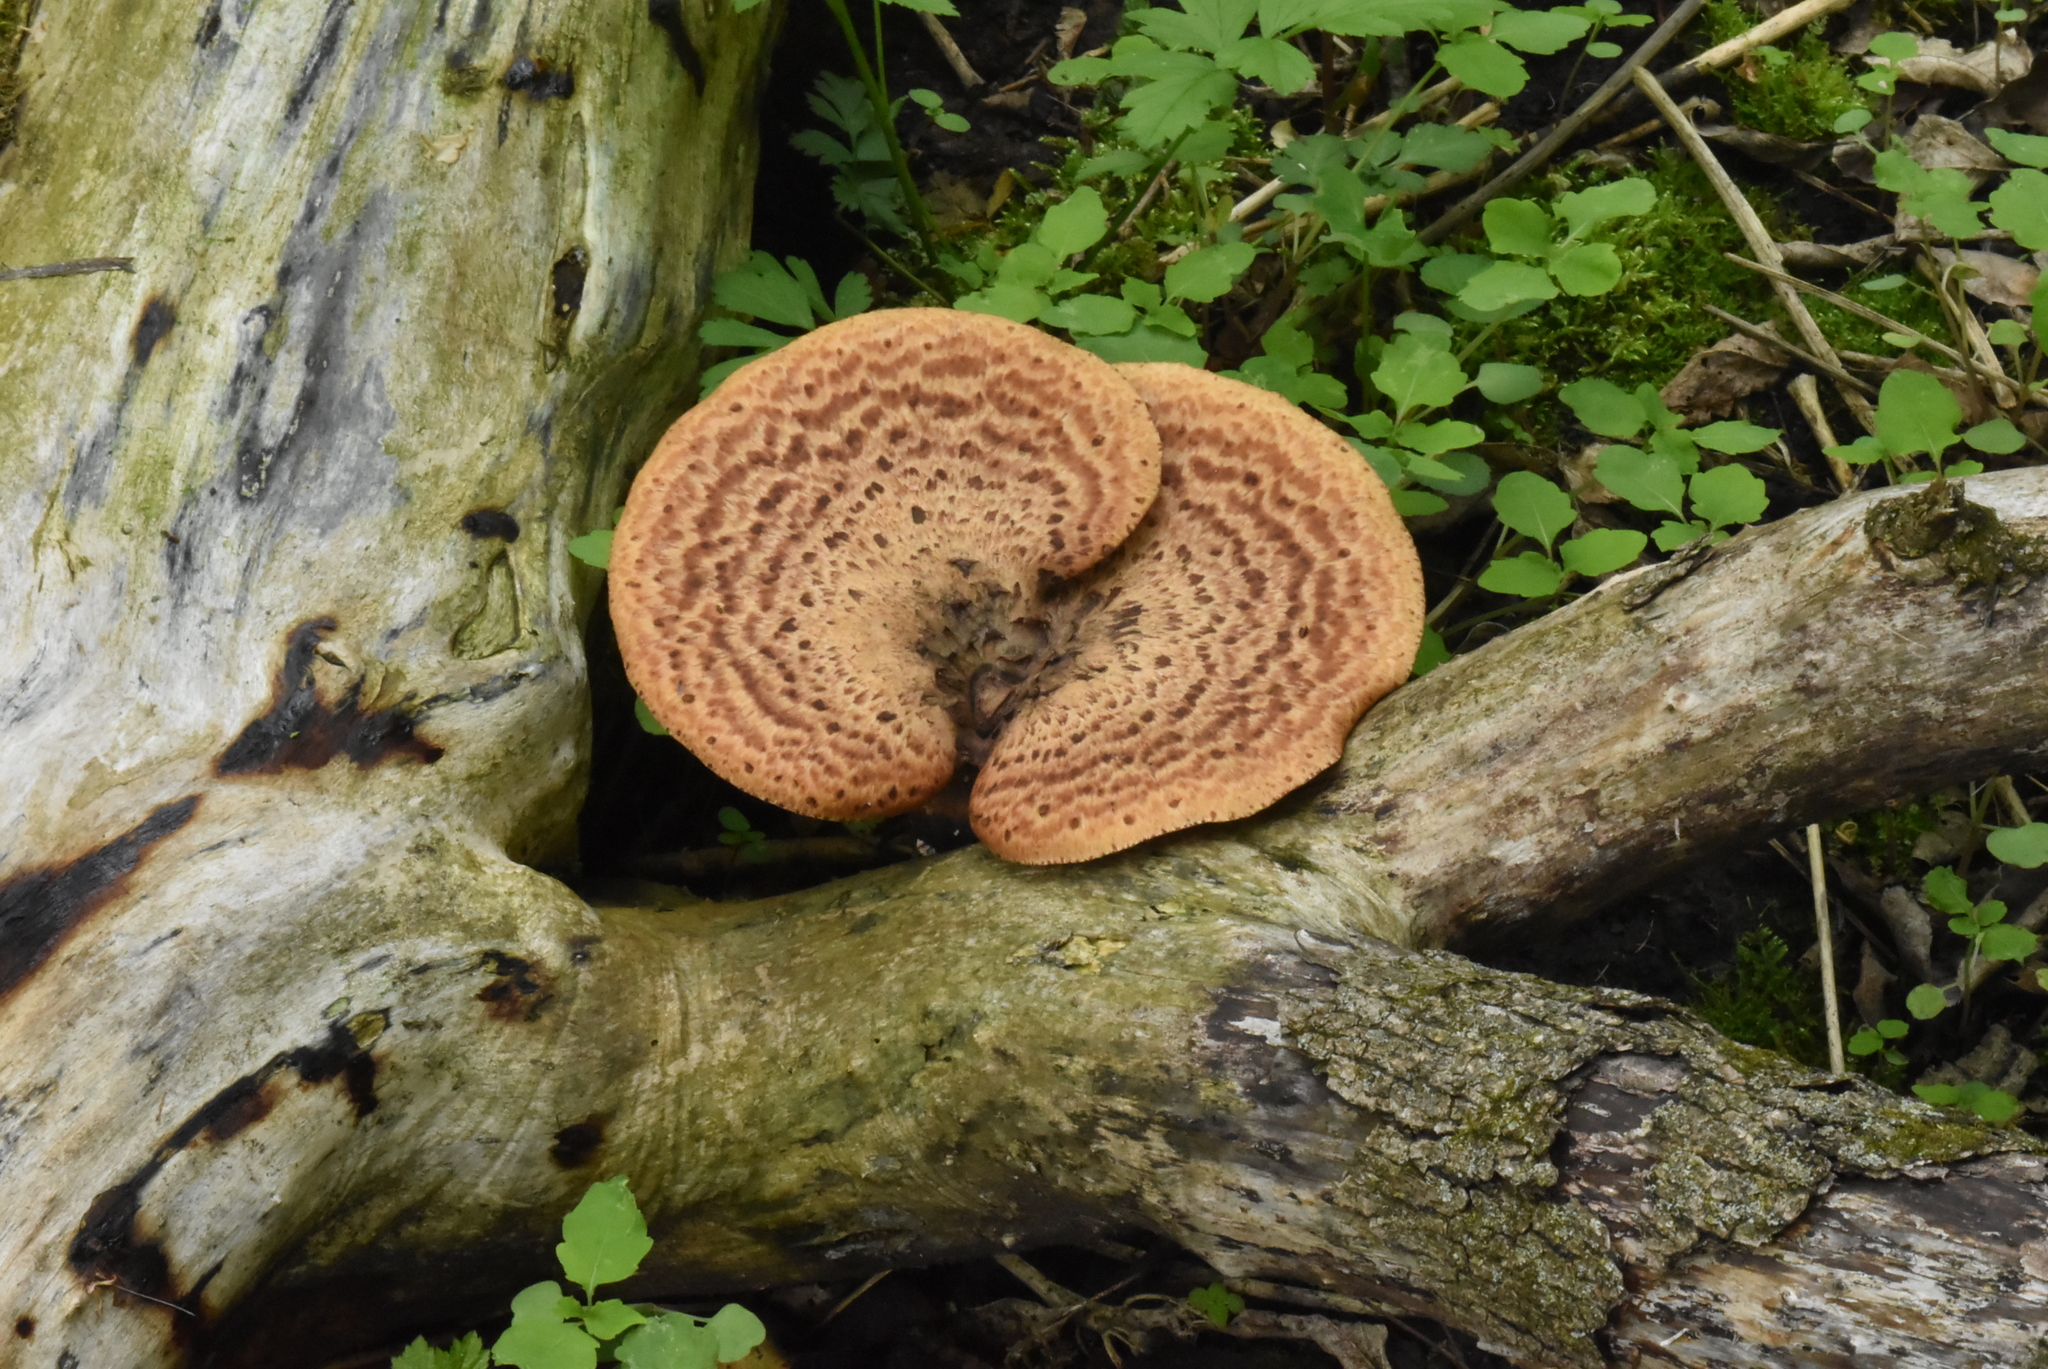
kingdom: Fungi
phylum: Basidiomycota
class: Agaricomycetes
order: Polyporales
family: Polyporaceae
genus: Cerioporus
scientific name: Cerioporus squamosus
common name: Dryad's saddle
